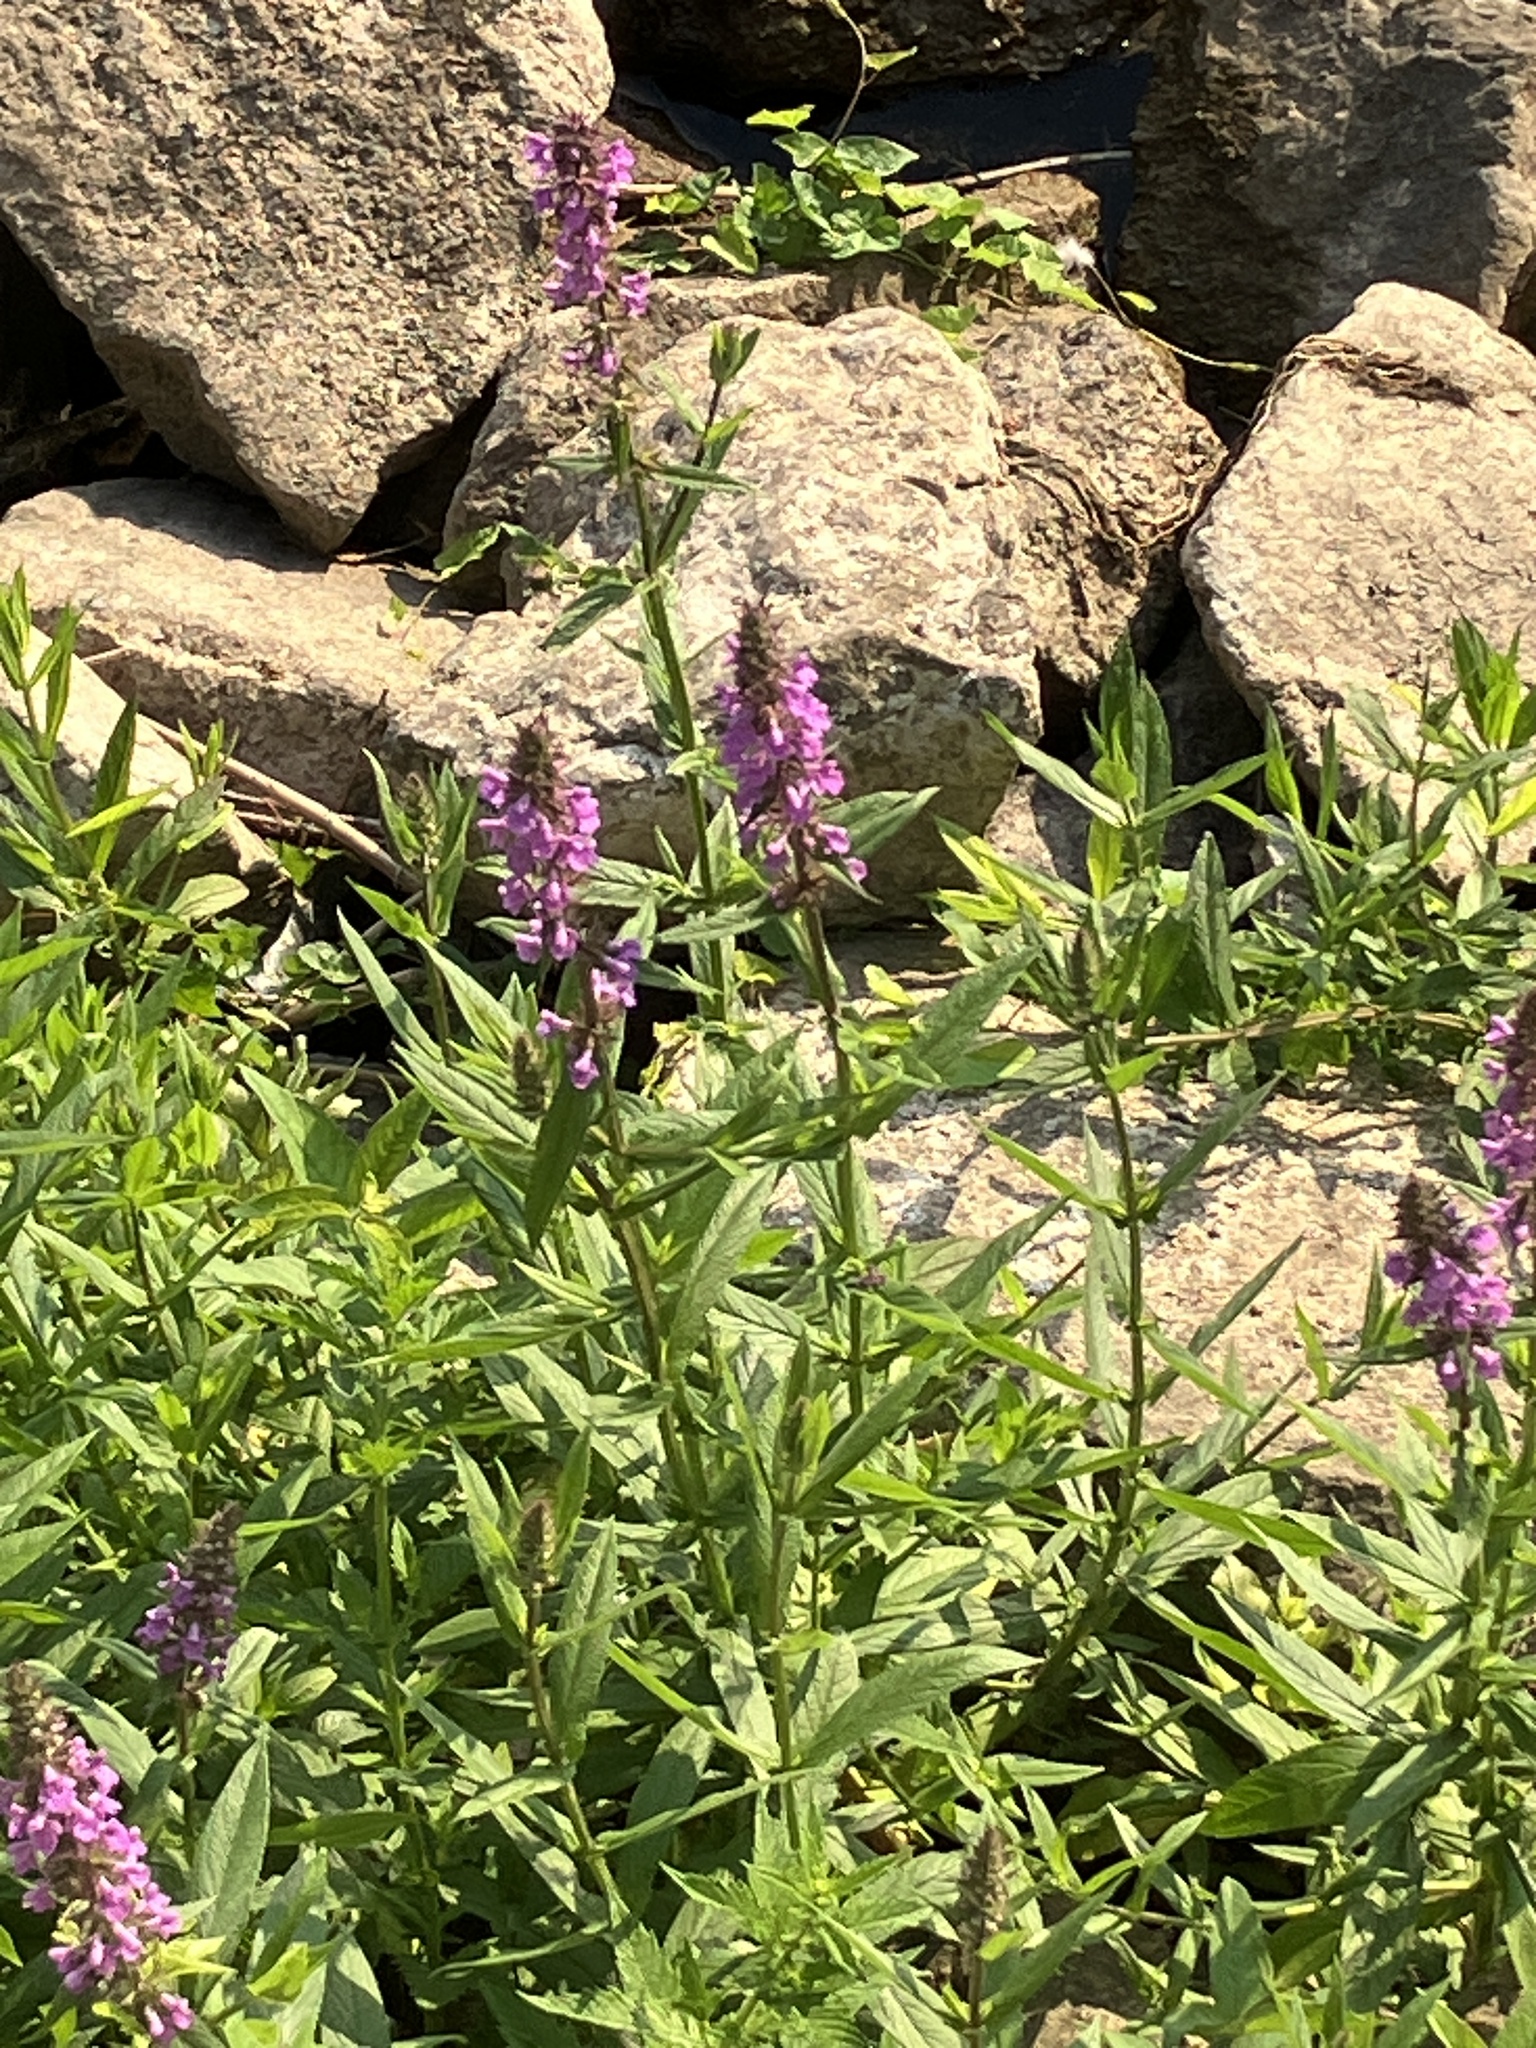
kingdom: Plantae
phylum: Tracheophyta
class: Magnoliopsida
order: Lamiales
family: Lamiaceae
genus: Stachys
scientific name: Stachys palustris
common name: Marsh woundwort
